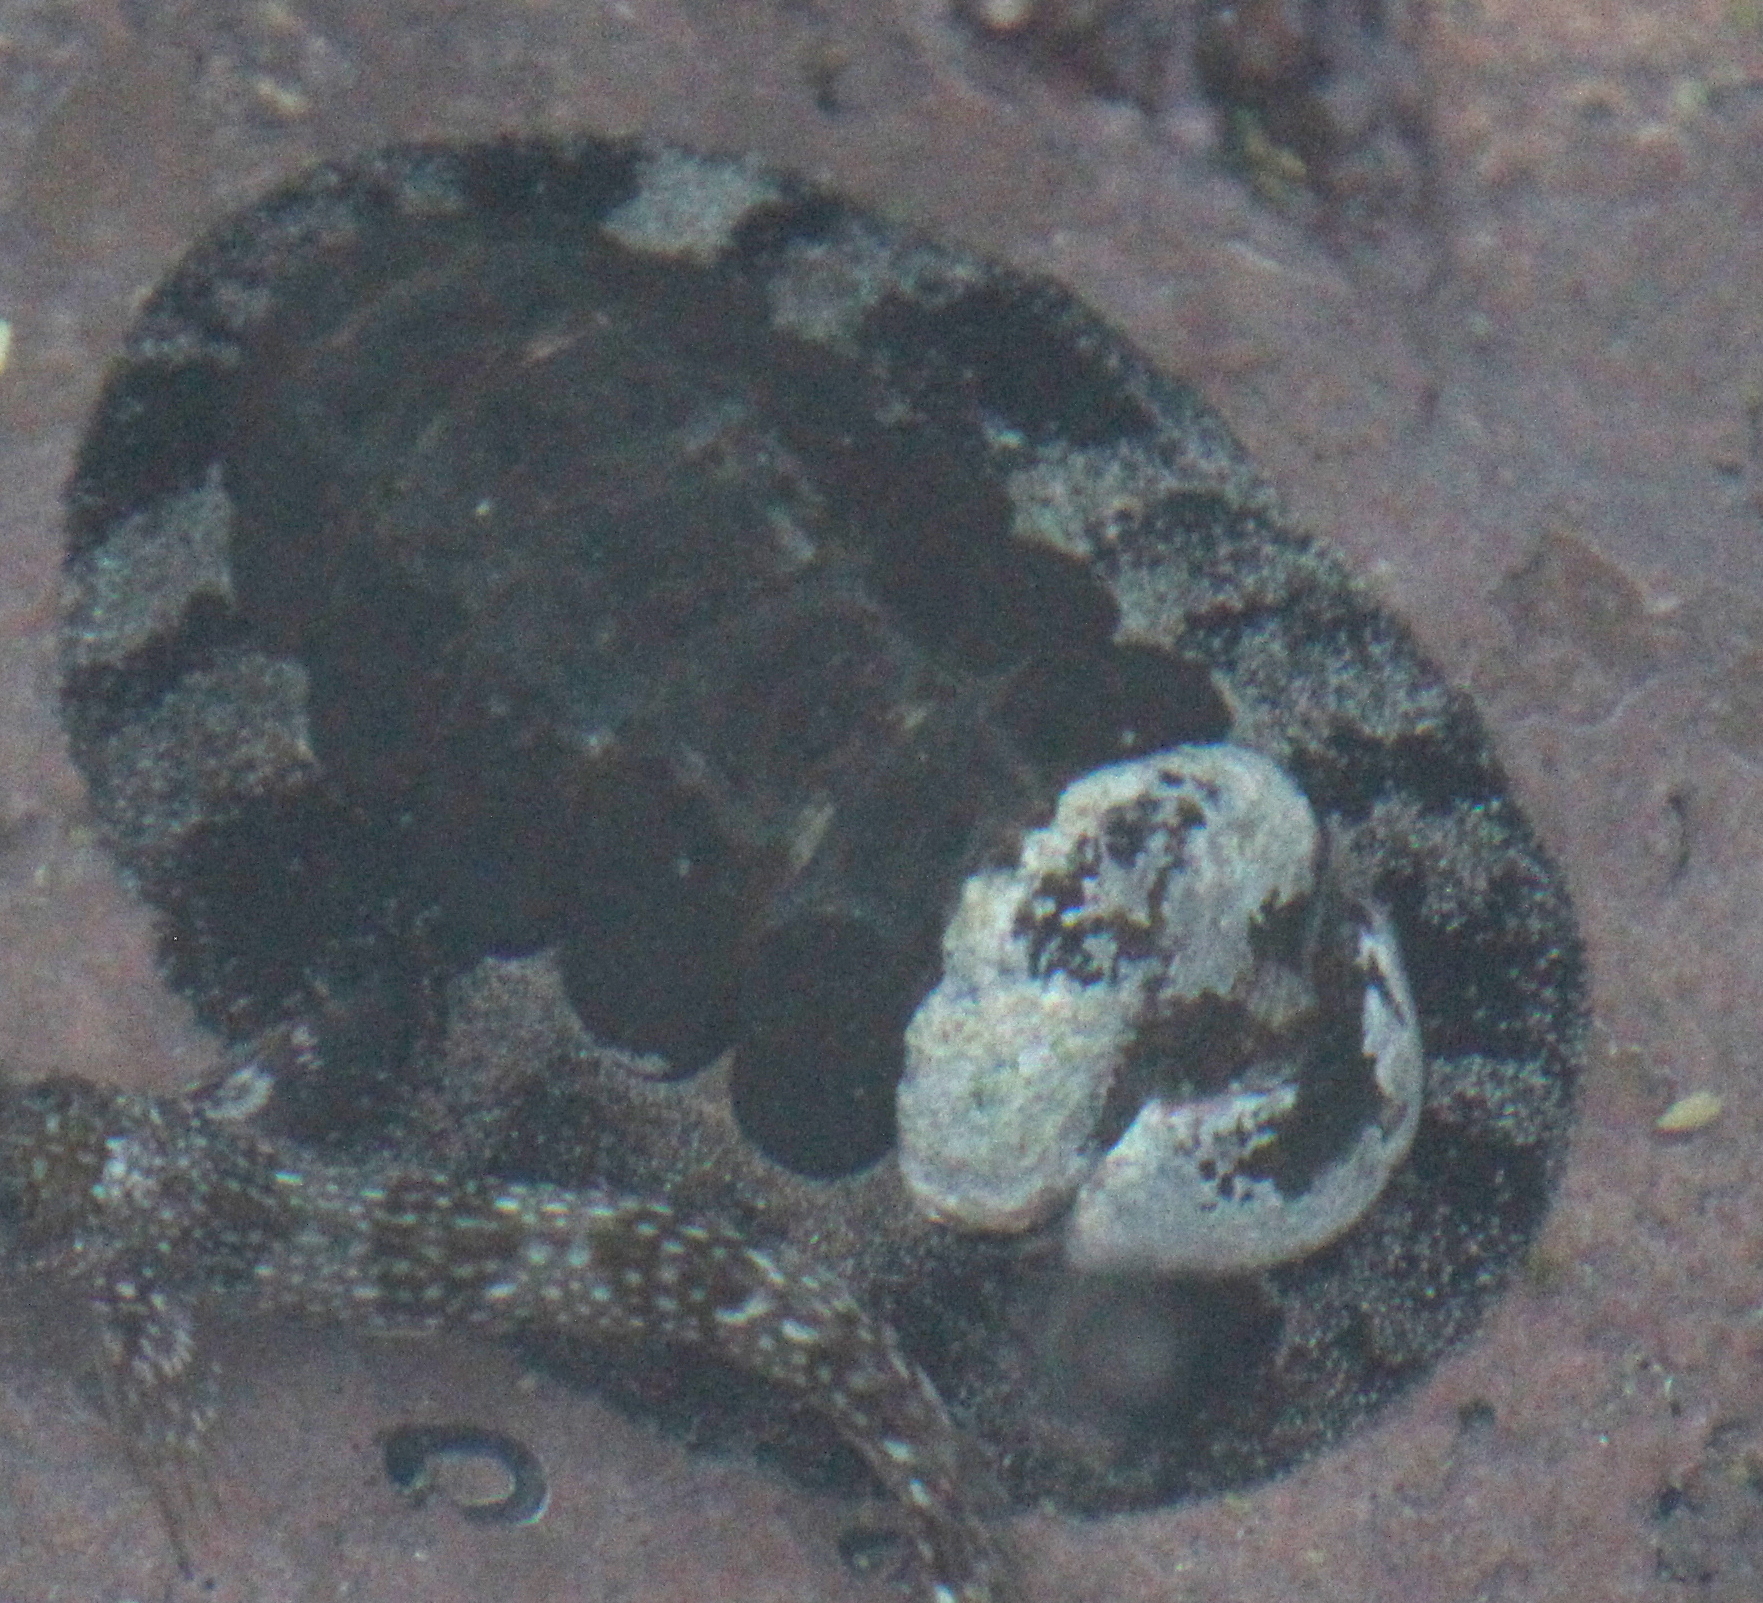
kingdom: Animalia
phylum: Mollusca
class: Polyplacophora
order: Chitonida
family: Chitonidae
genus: Acanthopleura
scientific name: Acanthopleura vaillantii
